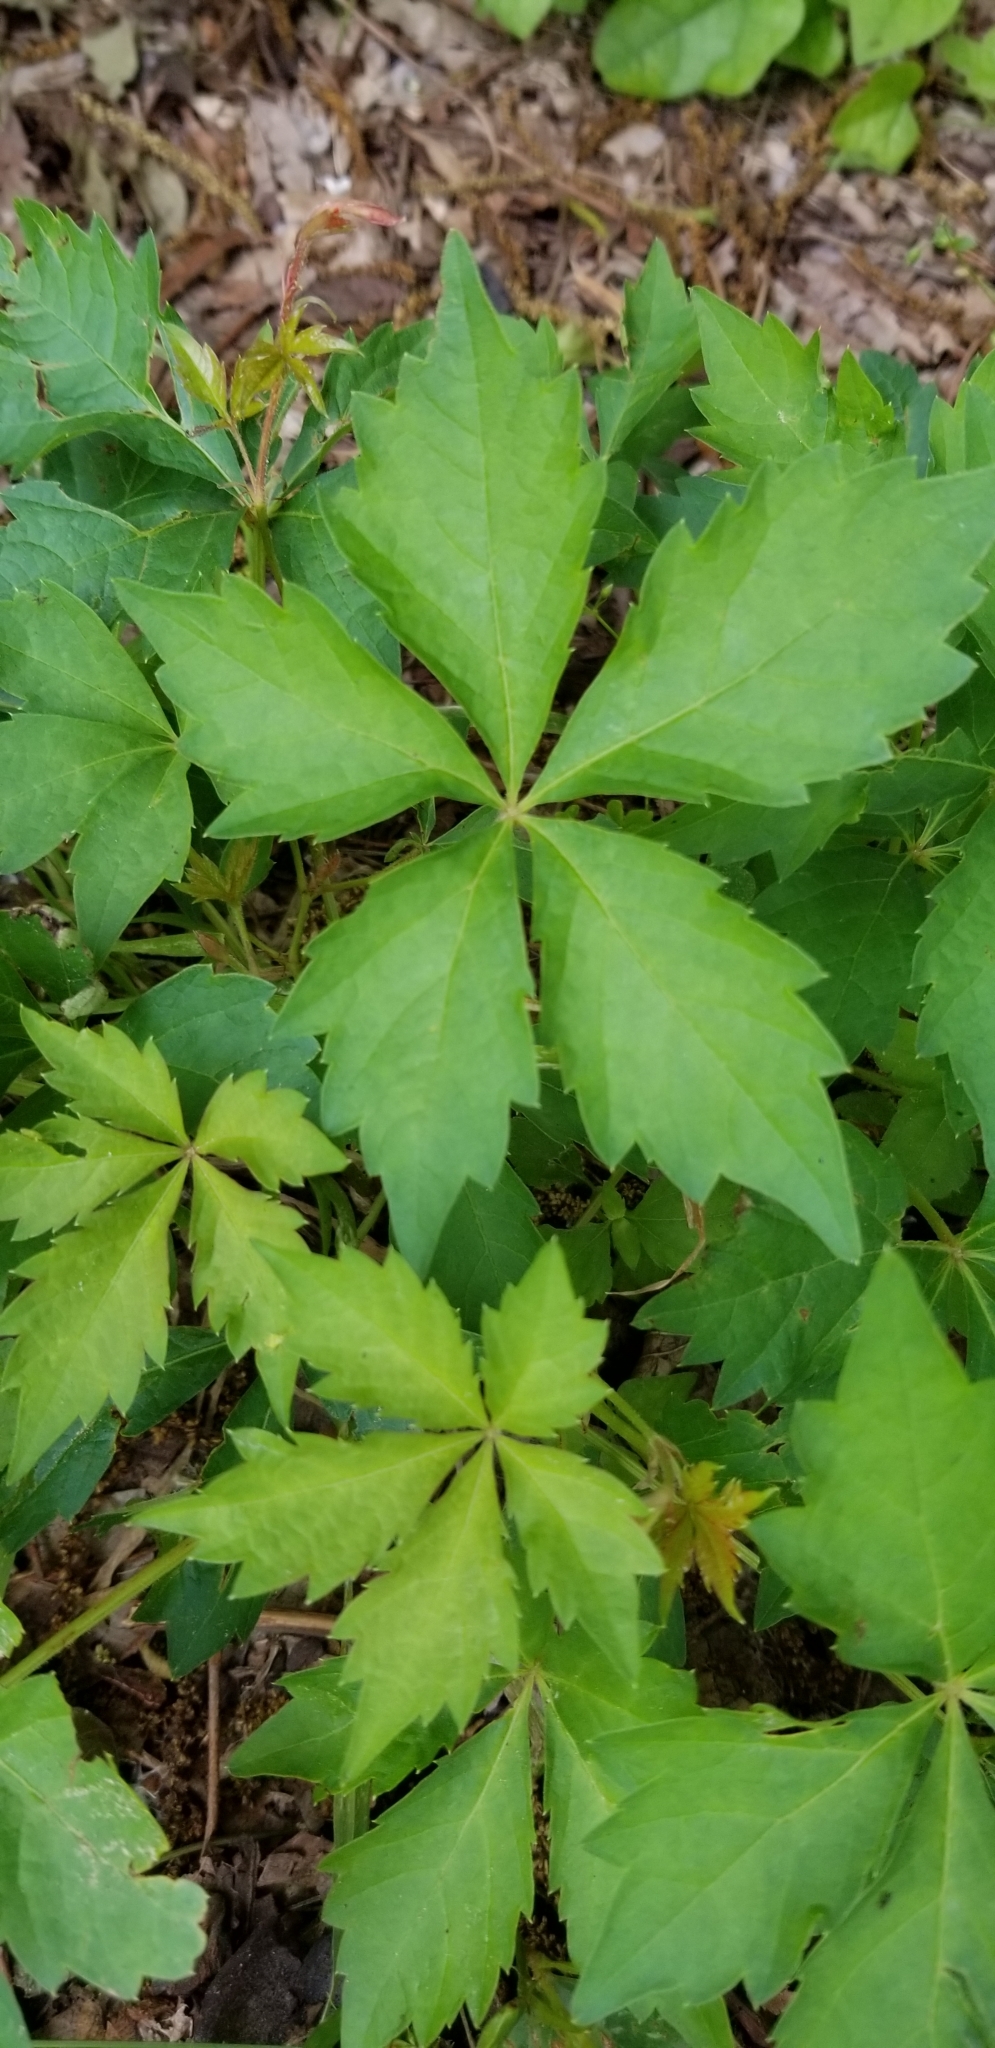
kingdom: Plantae
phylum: Tracheophyta
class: Magnoliopsida
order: Vitales
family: Vitaceae
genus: Parthenocissus
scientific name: Parthenocissus quinquefolia
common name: Virginia-creeper
